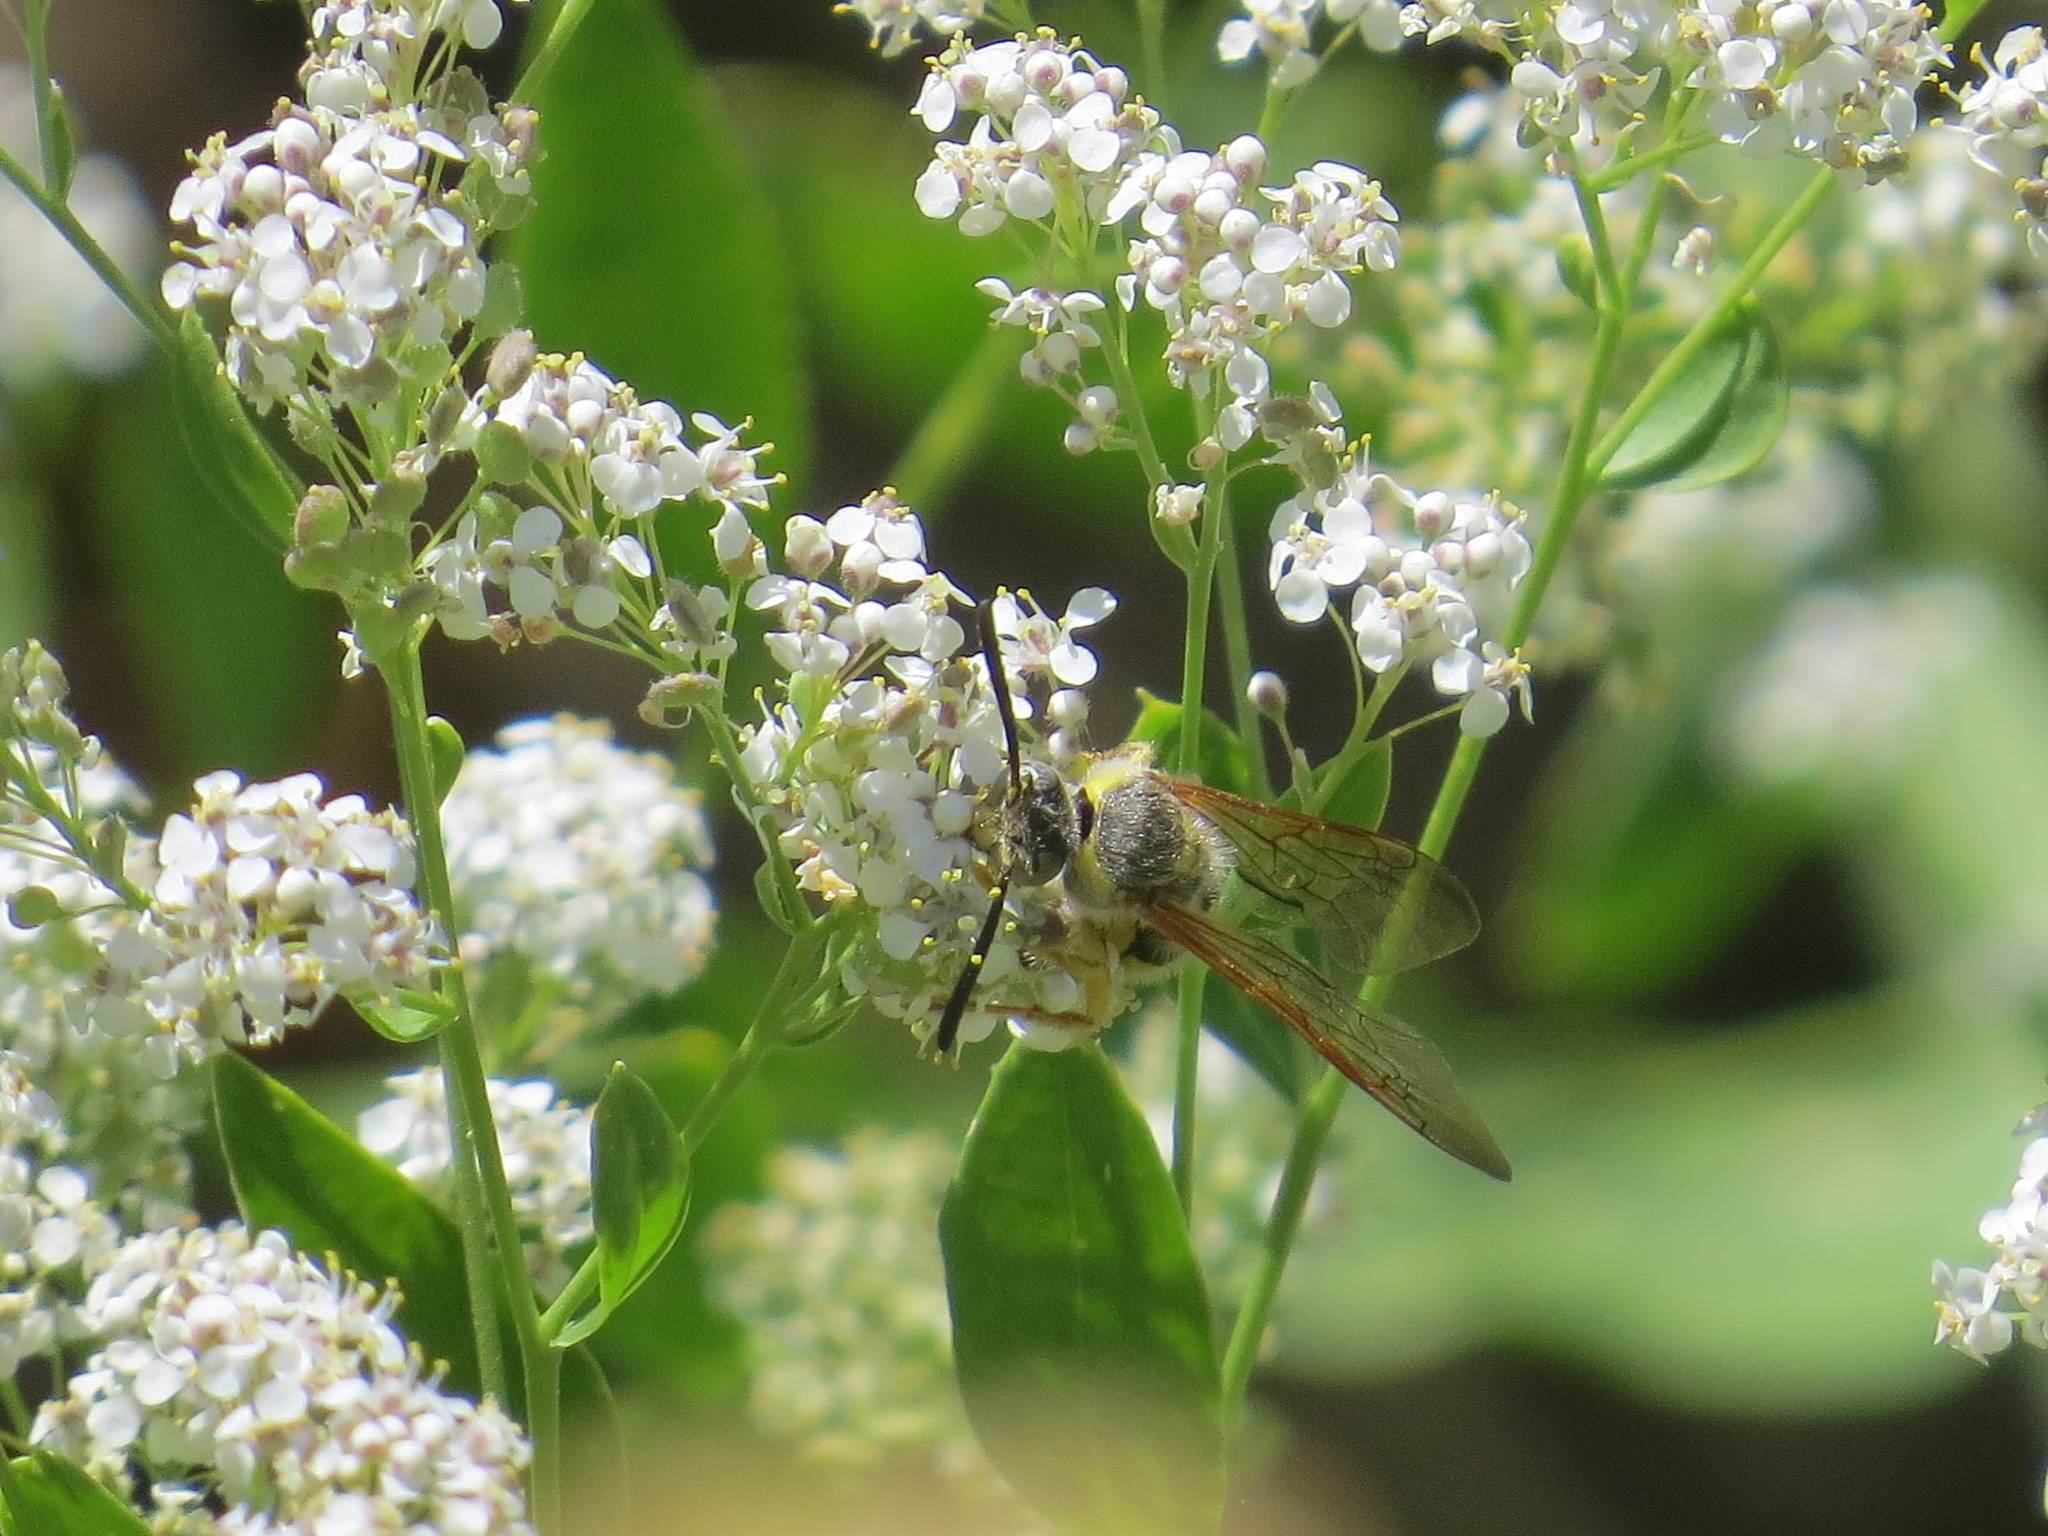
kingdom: Animalia
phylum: Arthropoda
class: Insecta
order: Hymenoptera
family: Sphecidae
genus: Crioscolia
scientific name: Crioscolia
